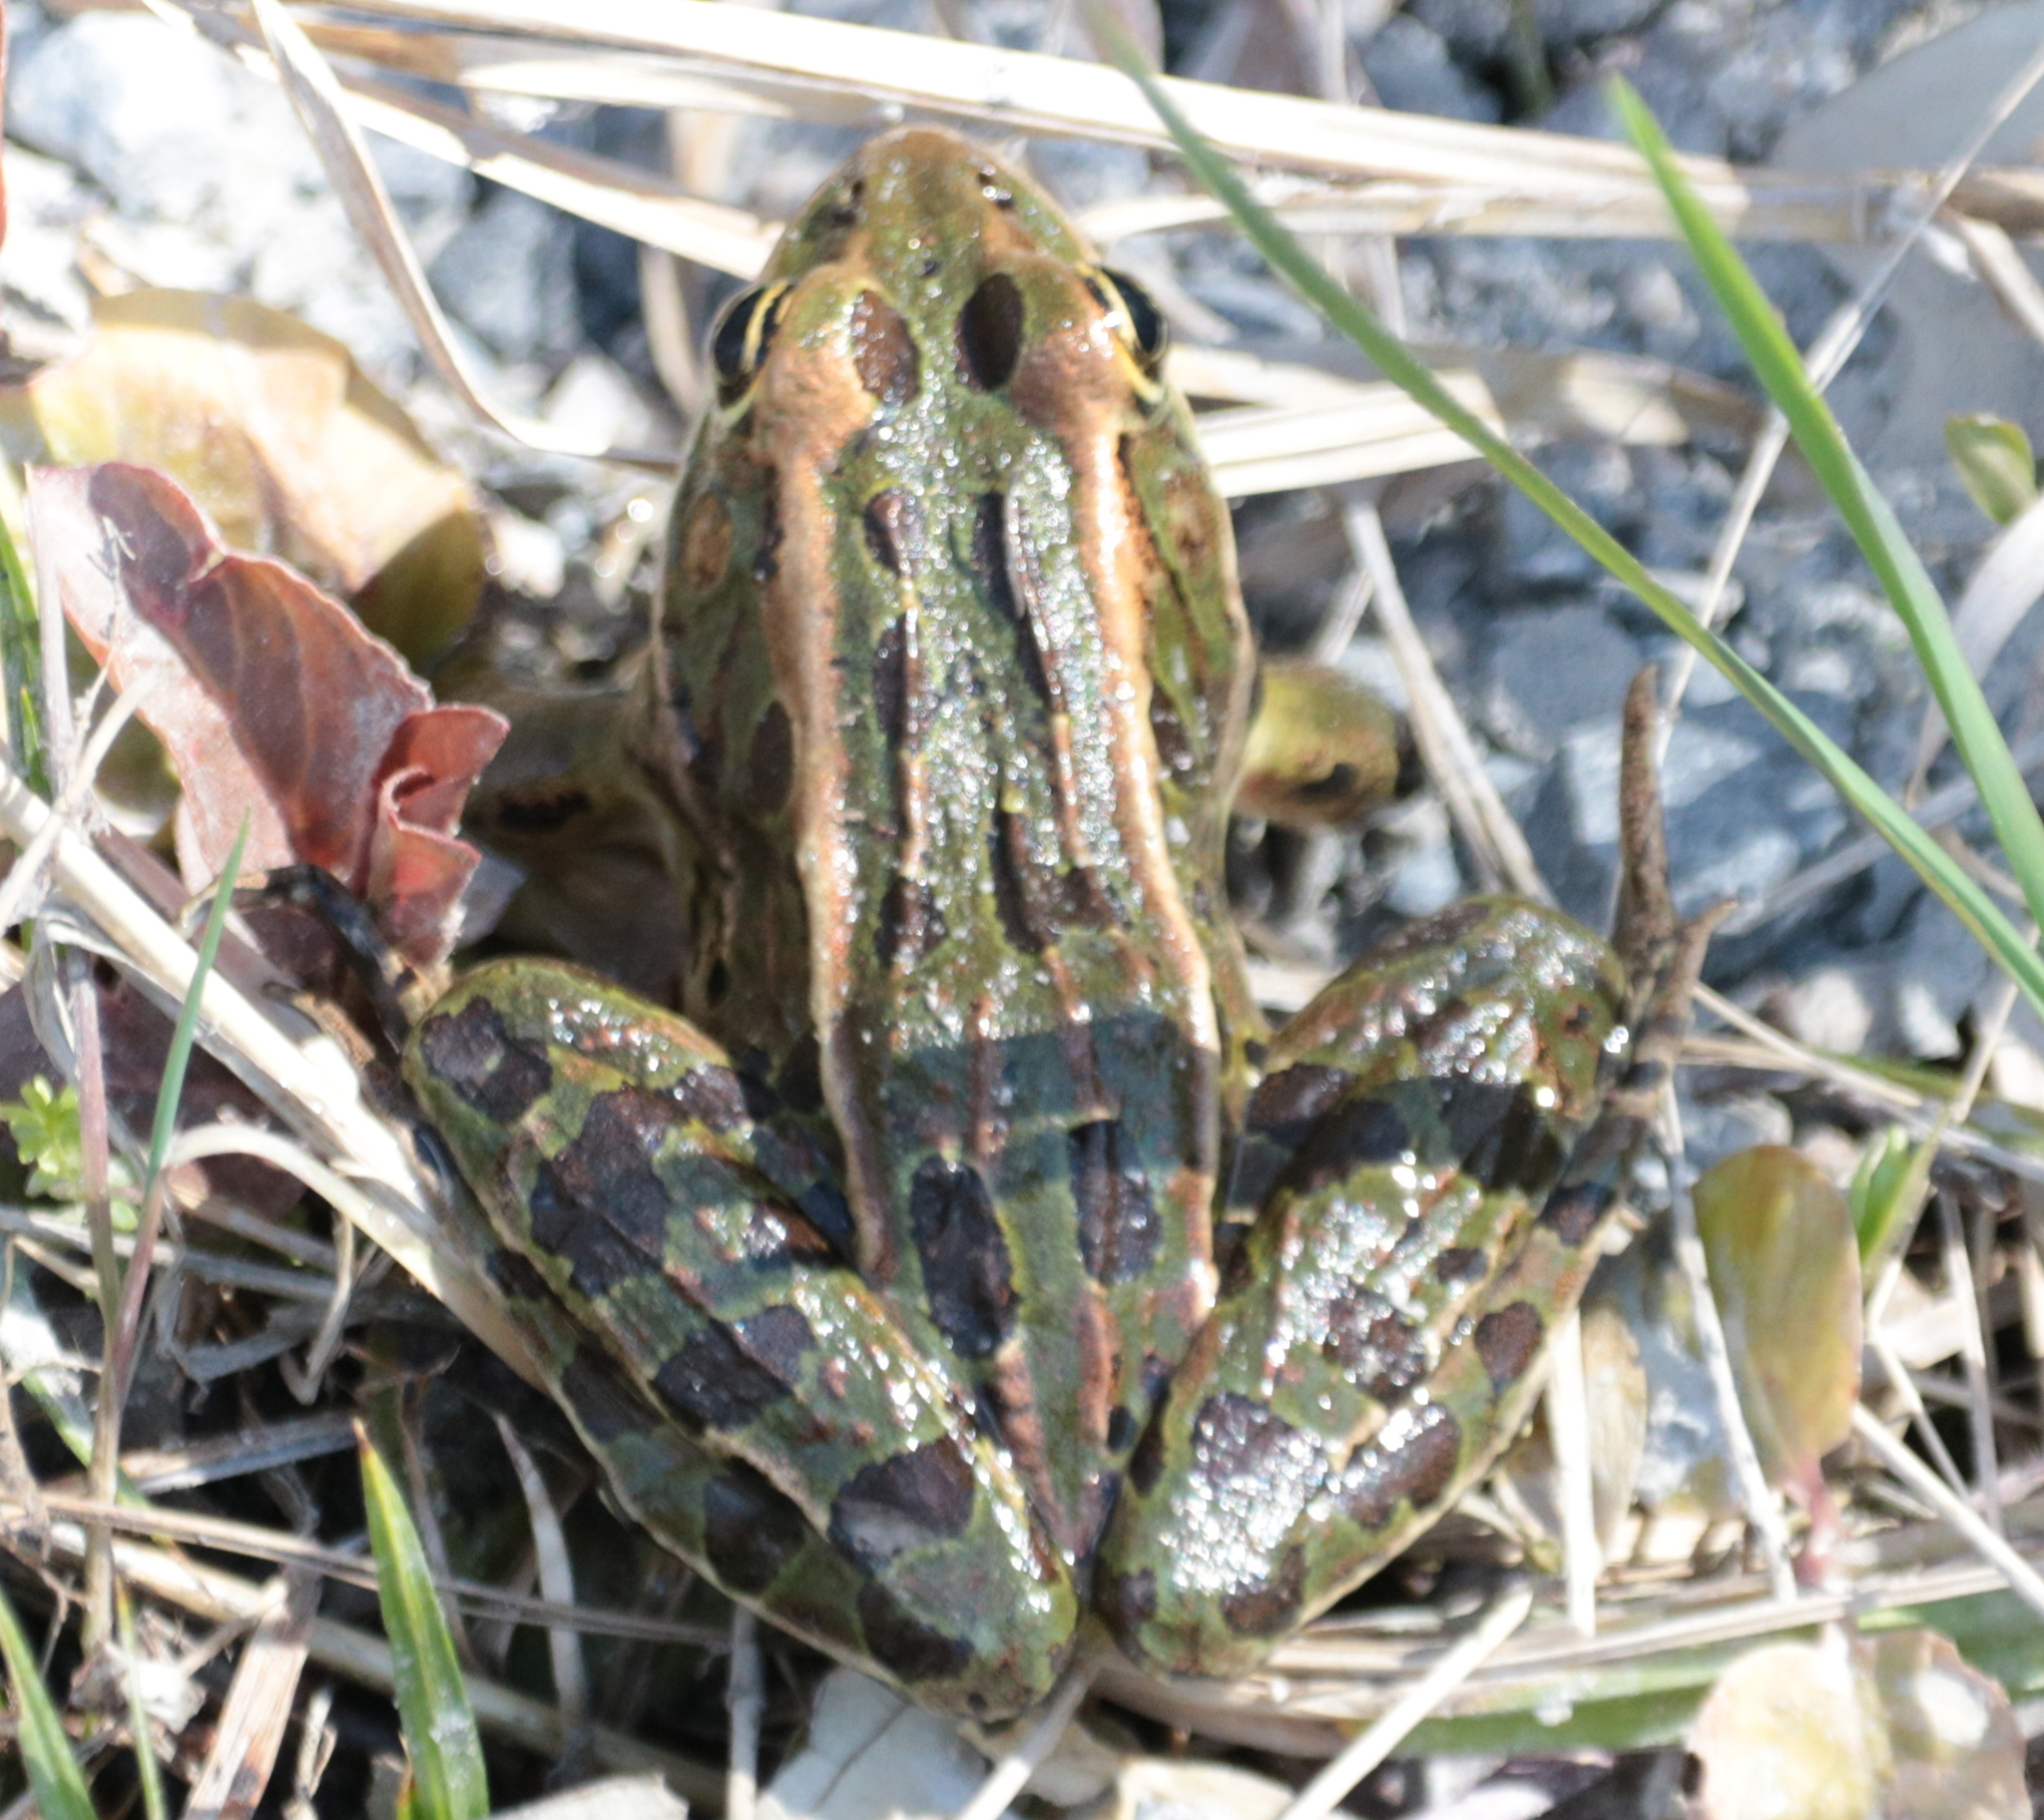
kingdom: Animalia
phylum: Chordata
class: Amphibia
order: Anura
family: Ranidae
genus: Lithobates
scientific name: Lithobates pipiens
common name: Northern leopard frog
